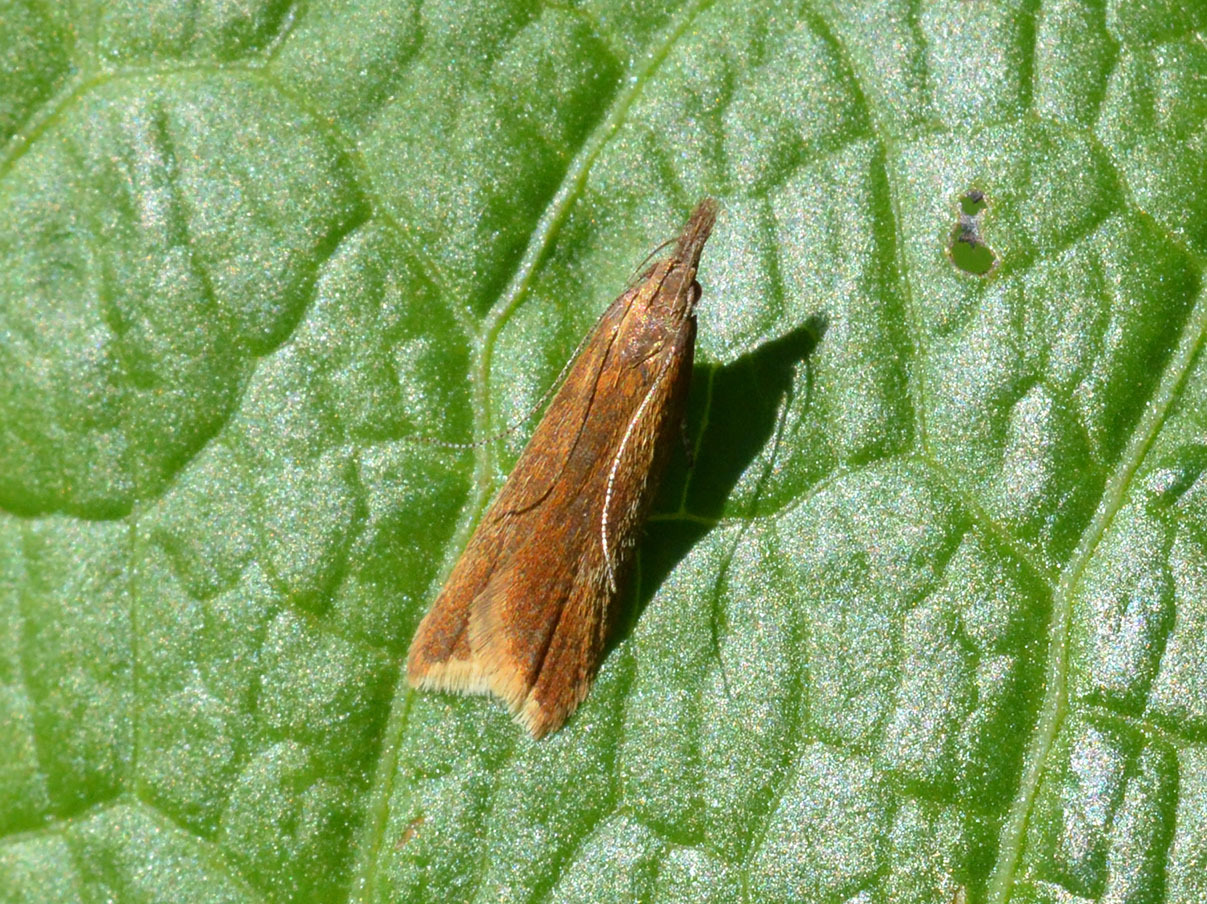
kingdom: Animalia
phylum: Arthropoda
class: Insecta
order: Lepidoptera
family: Gelechiidae
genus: Dichomeris
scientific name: Dichomeris ustalella
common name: Worcester crest
